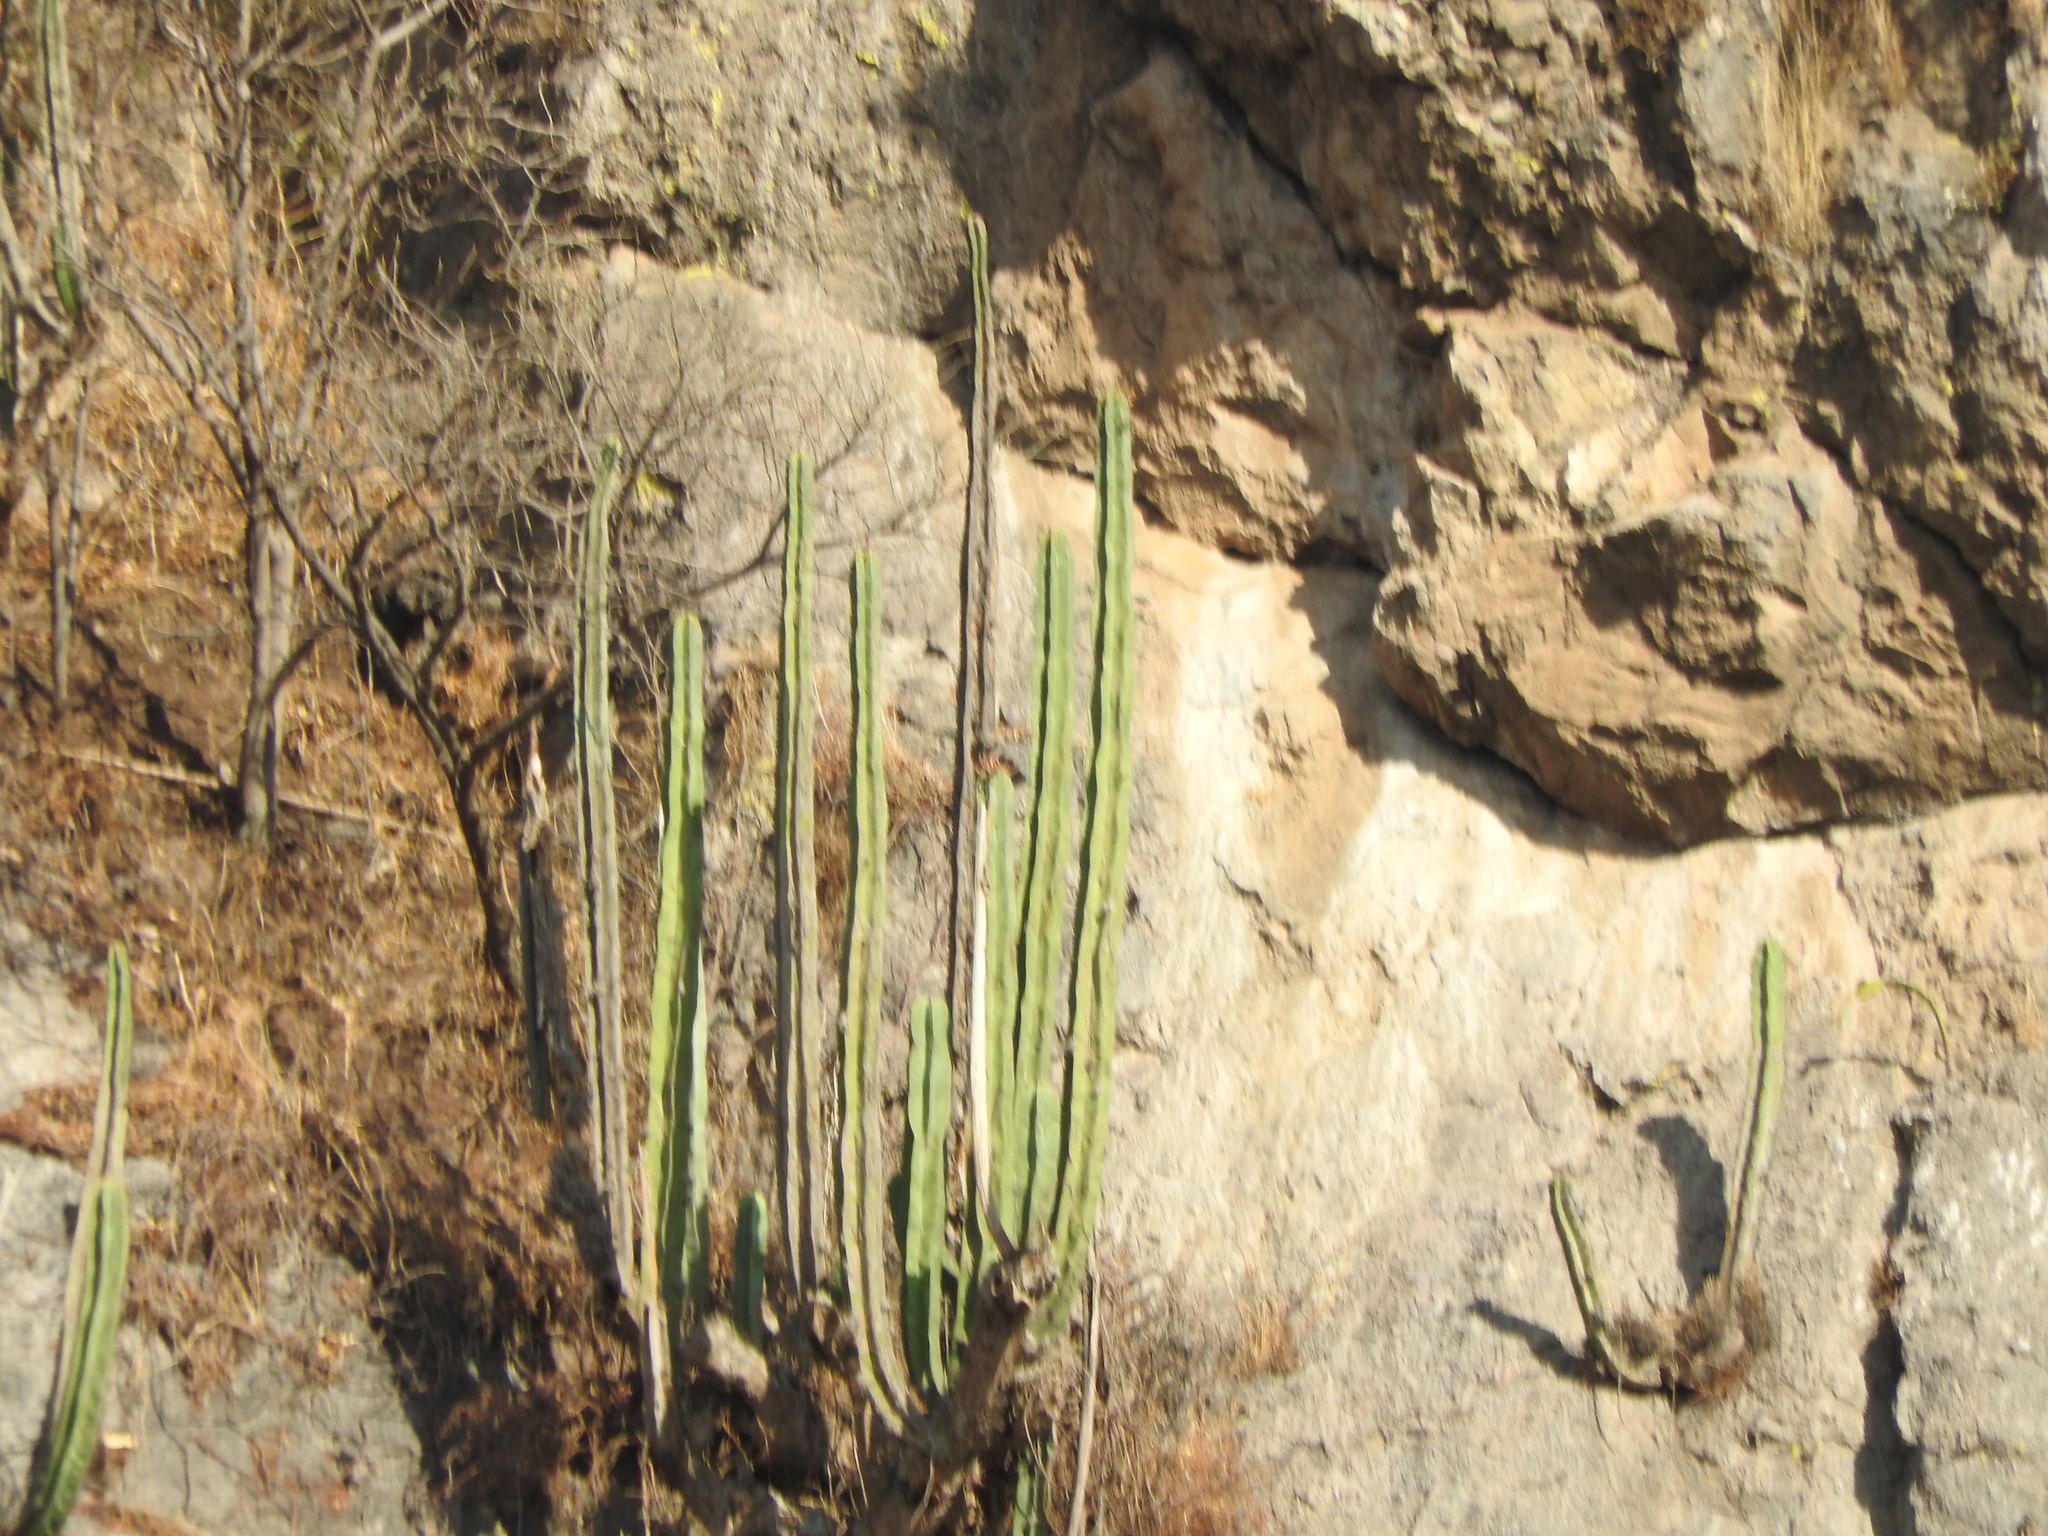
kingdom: Plantae
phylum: Tracheophyta
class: Magnoliopsida
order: Caryophyllales
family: Cactaceae
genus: Stenocereus
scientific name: Stenocereus dumortieri
